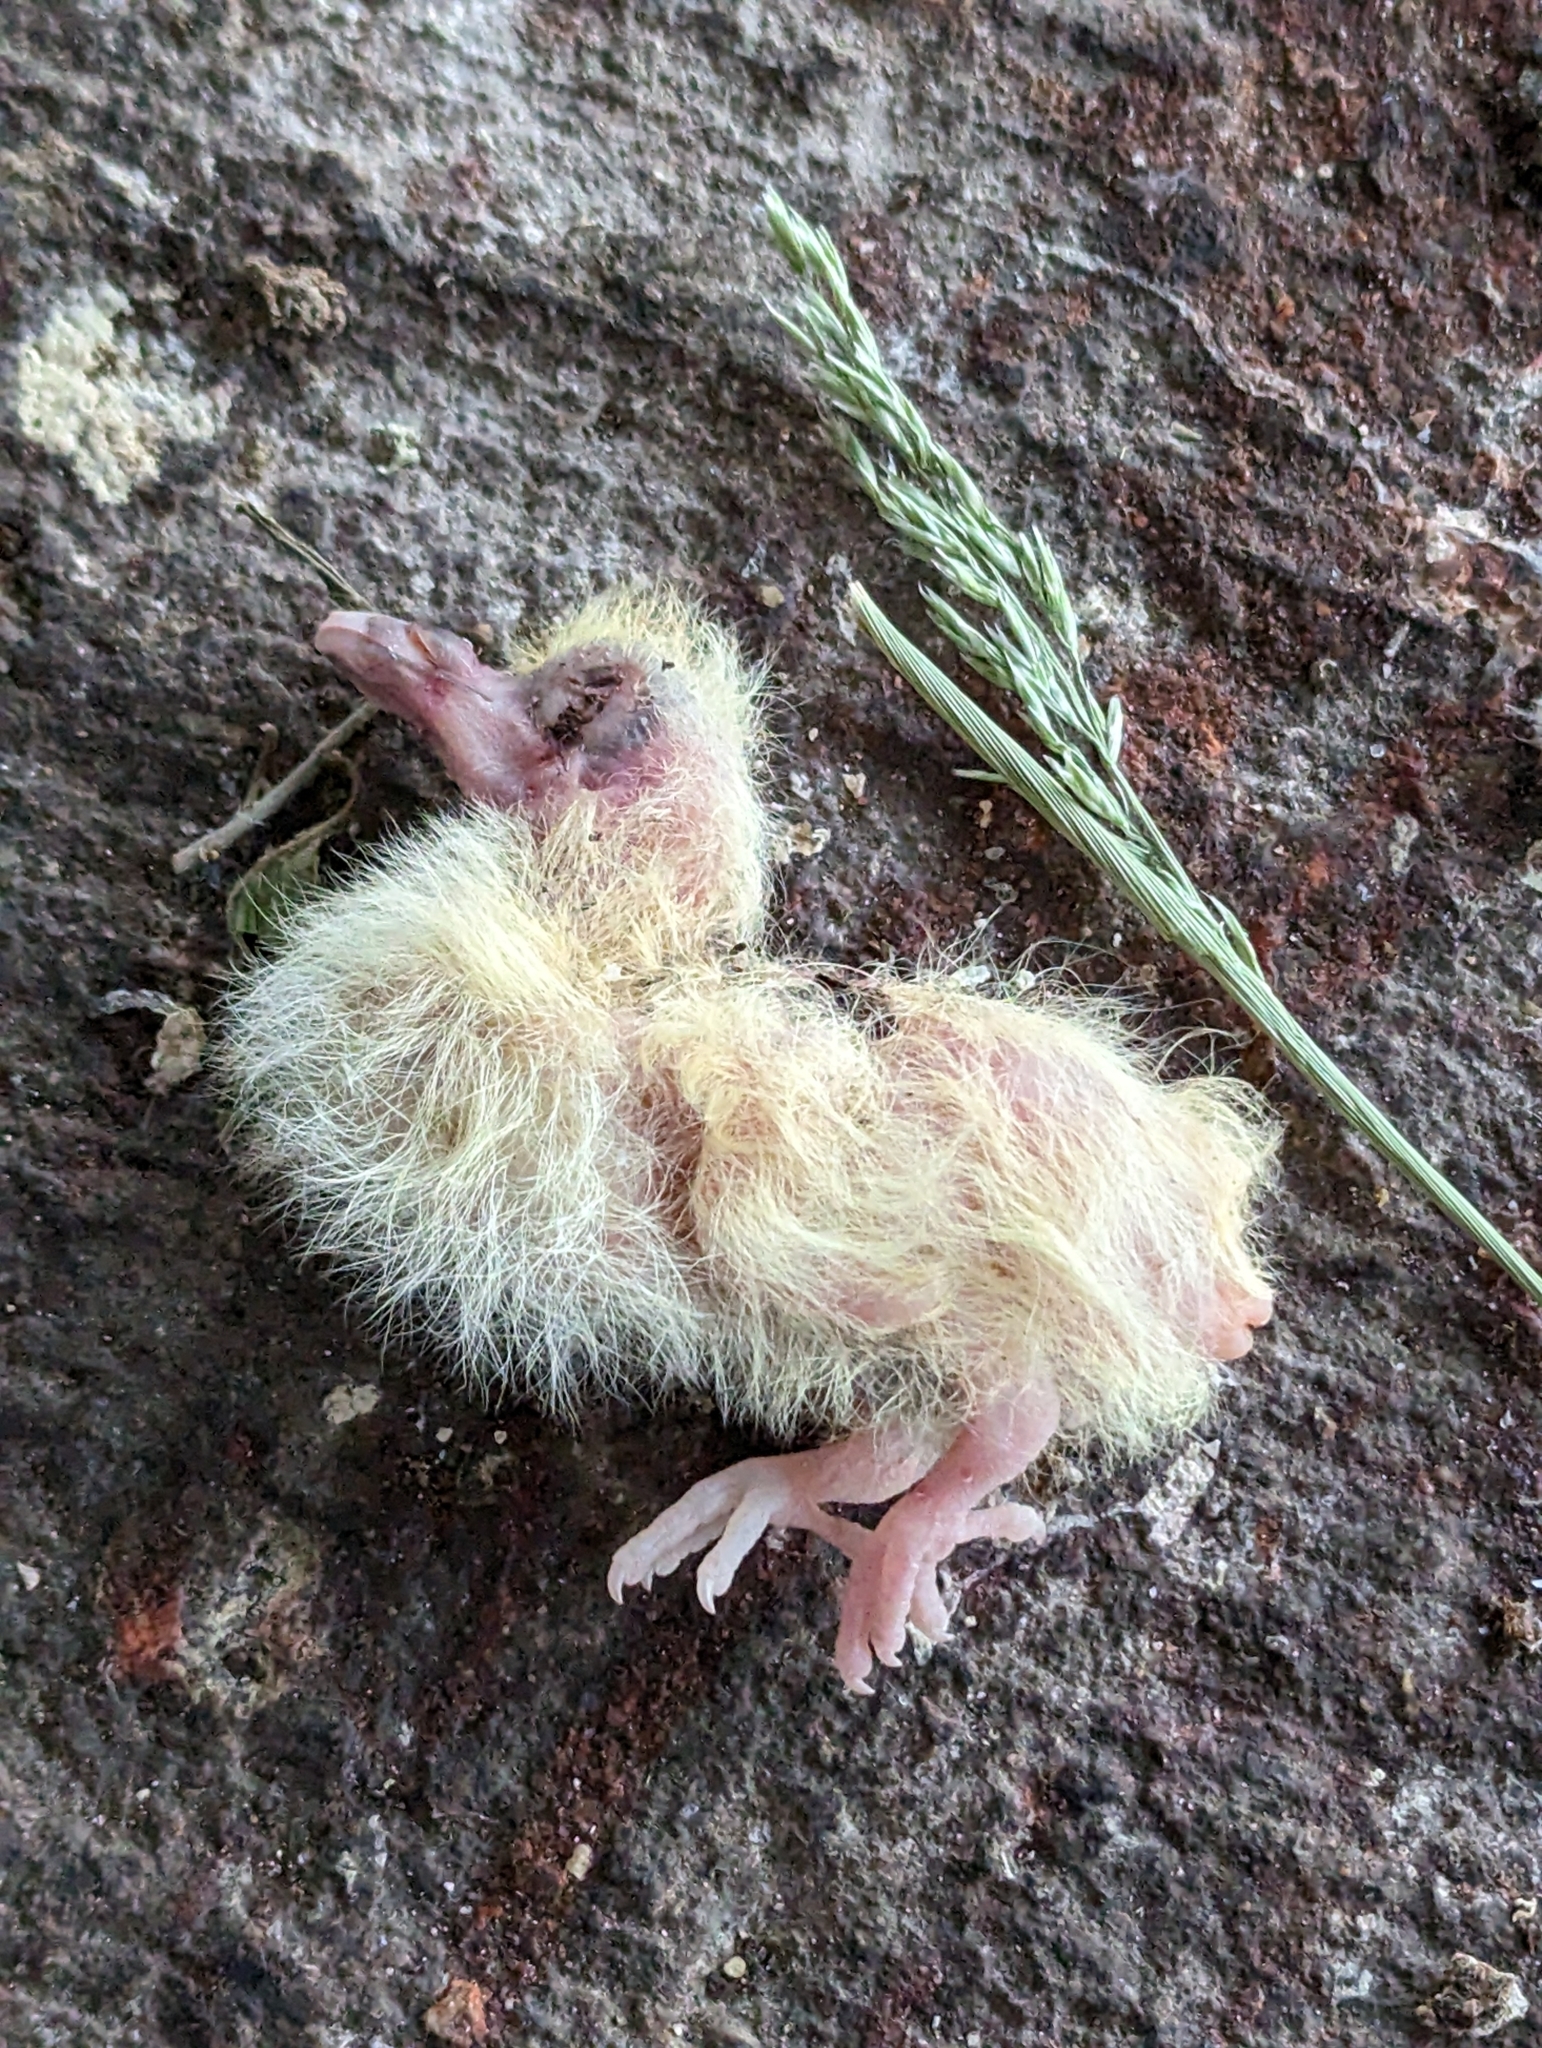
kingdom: Animalia
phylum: Chordata
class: Aves
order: Columbiformes
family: Columbidae
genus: Columba
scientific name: Columba livia
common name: Rock pigeon
